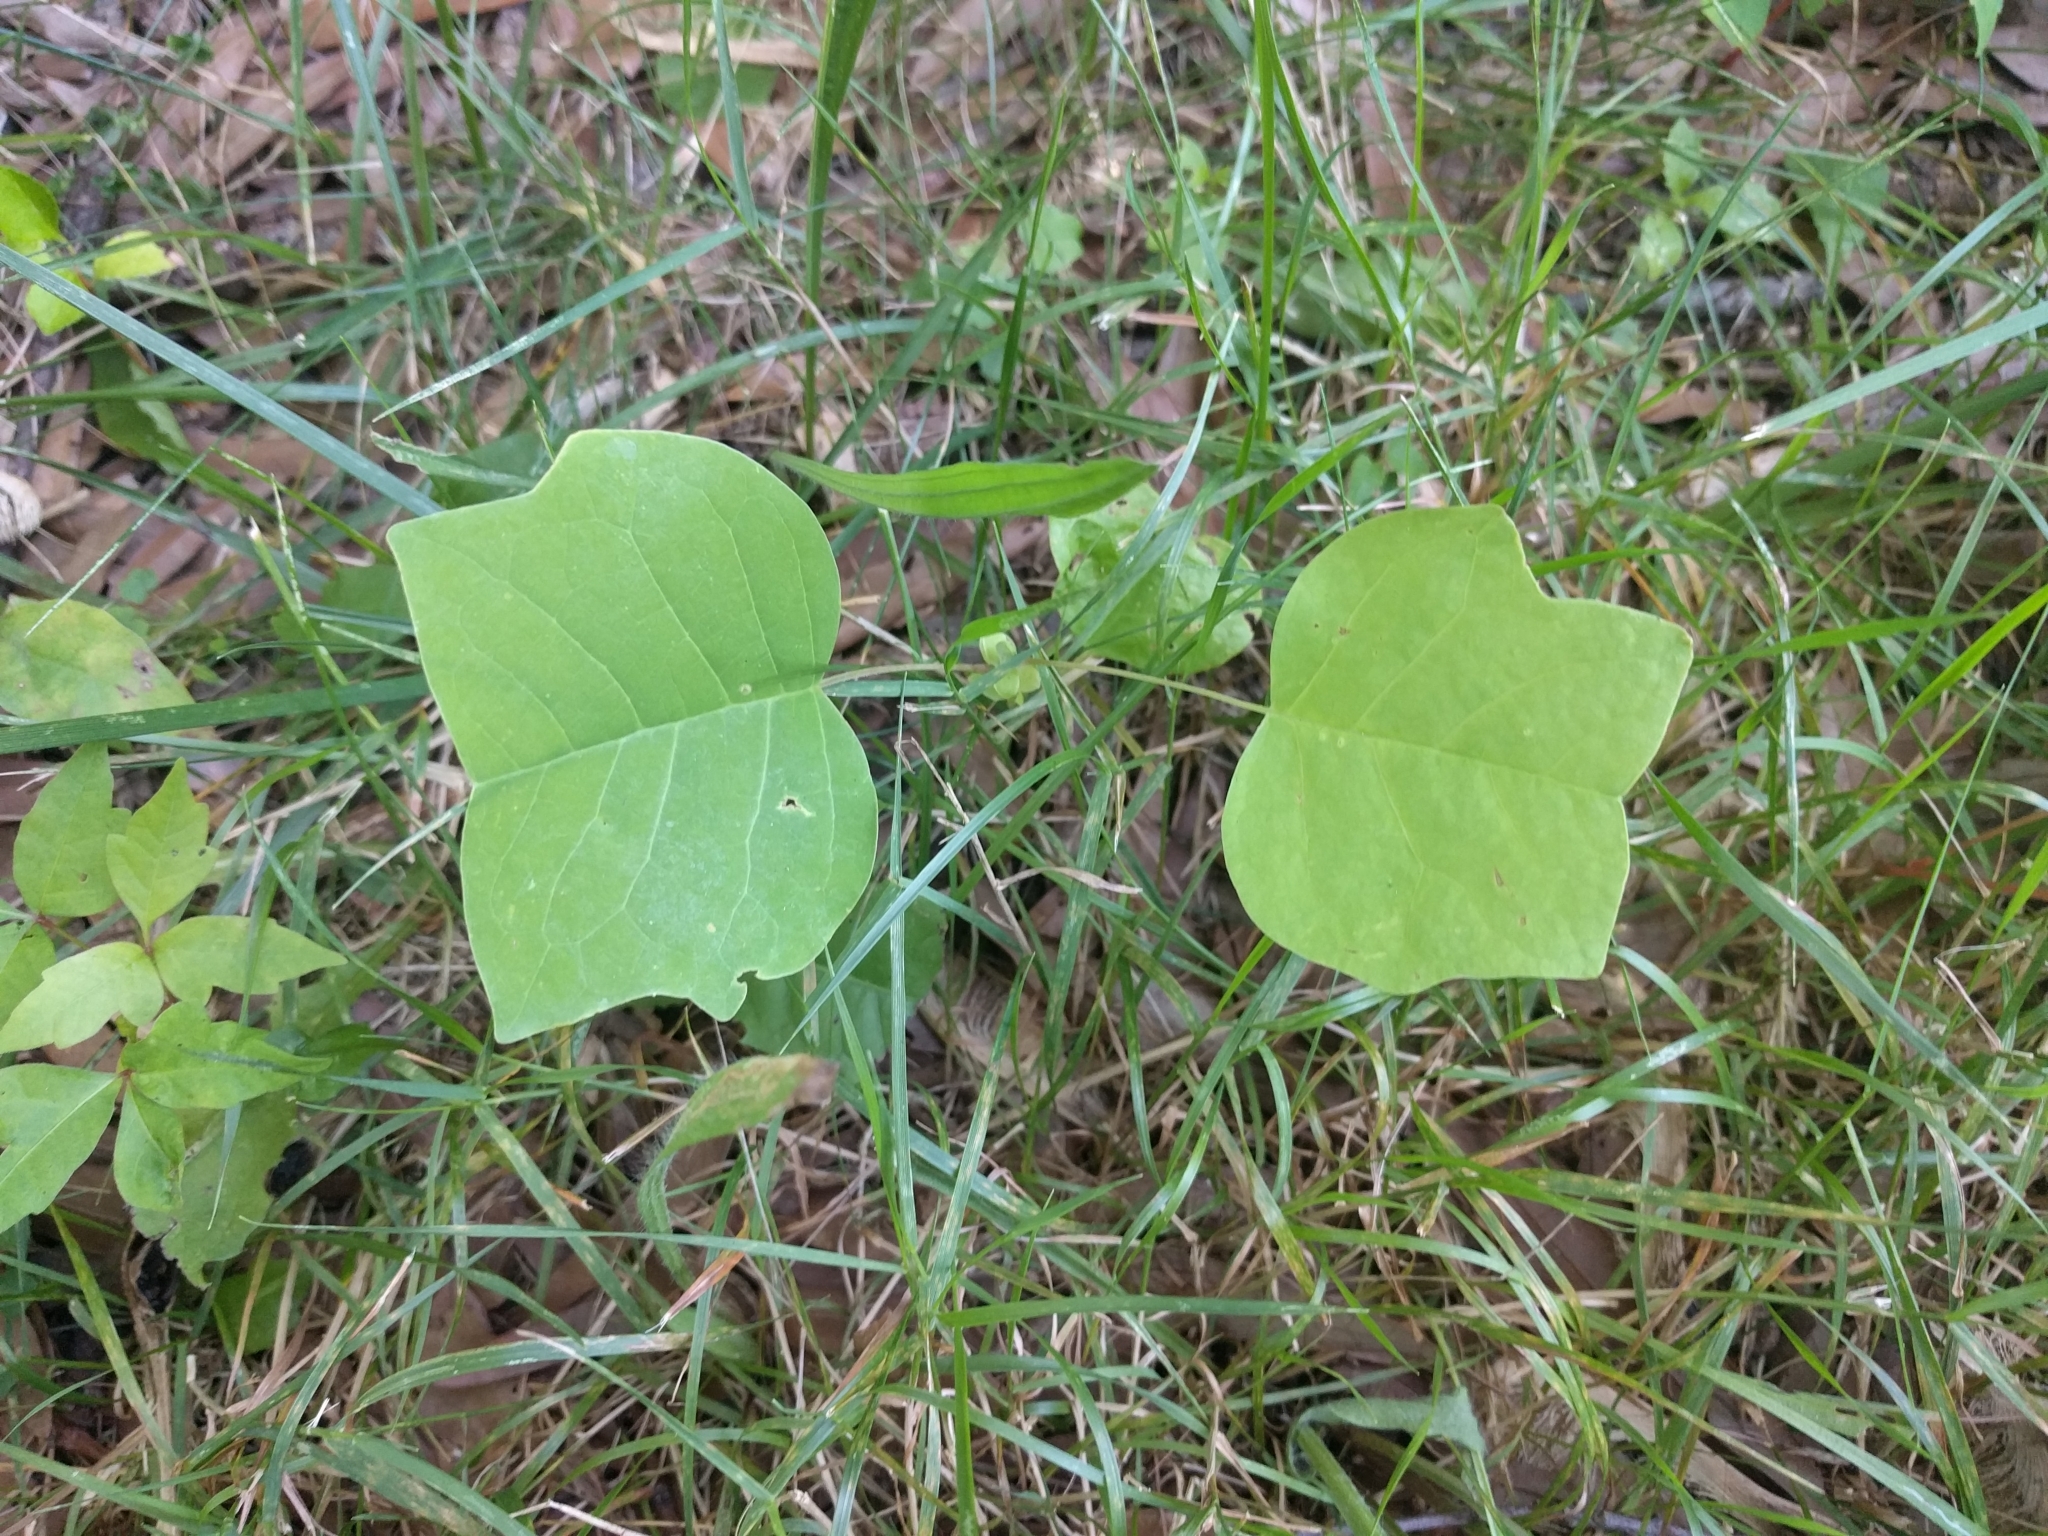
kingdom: Plantae
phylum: Tracheophyta
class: Magnoliopsida
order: Magnoliales
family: Magnoliaceae
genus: Liriodendron
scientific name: Liriodendron tulipifera
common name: Tulip tree
